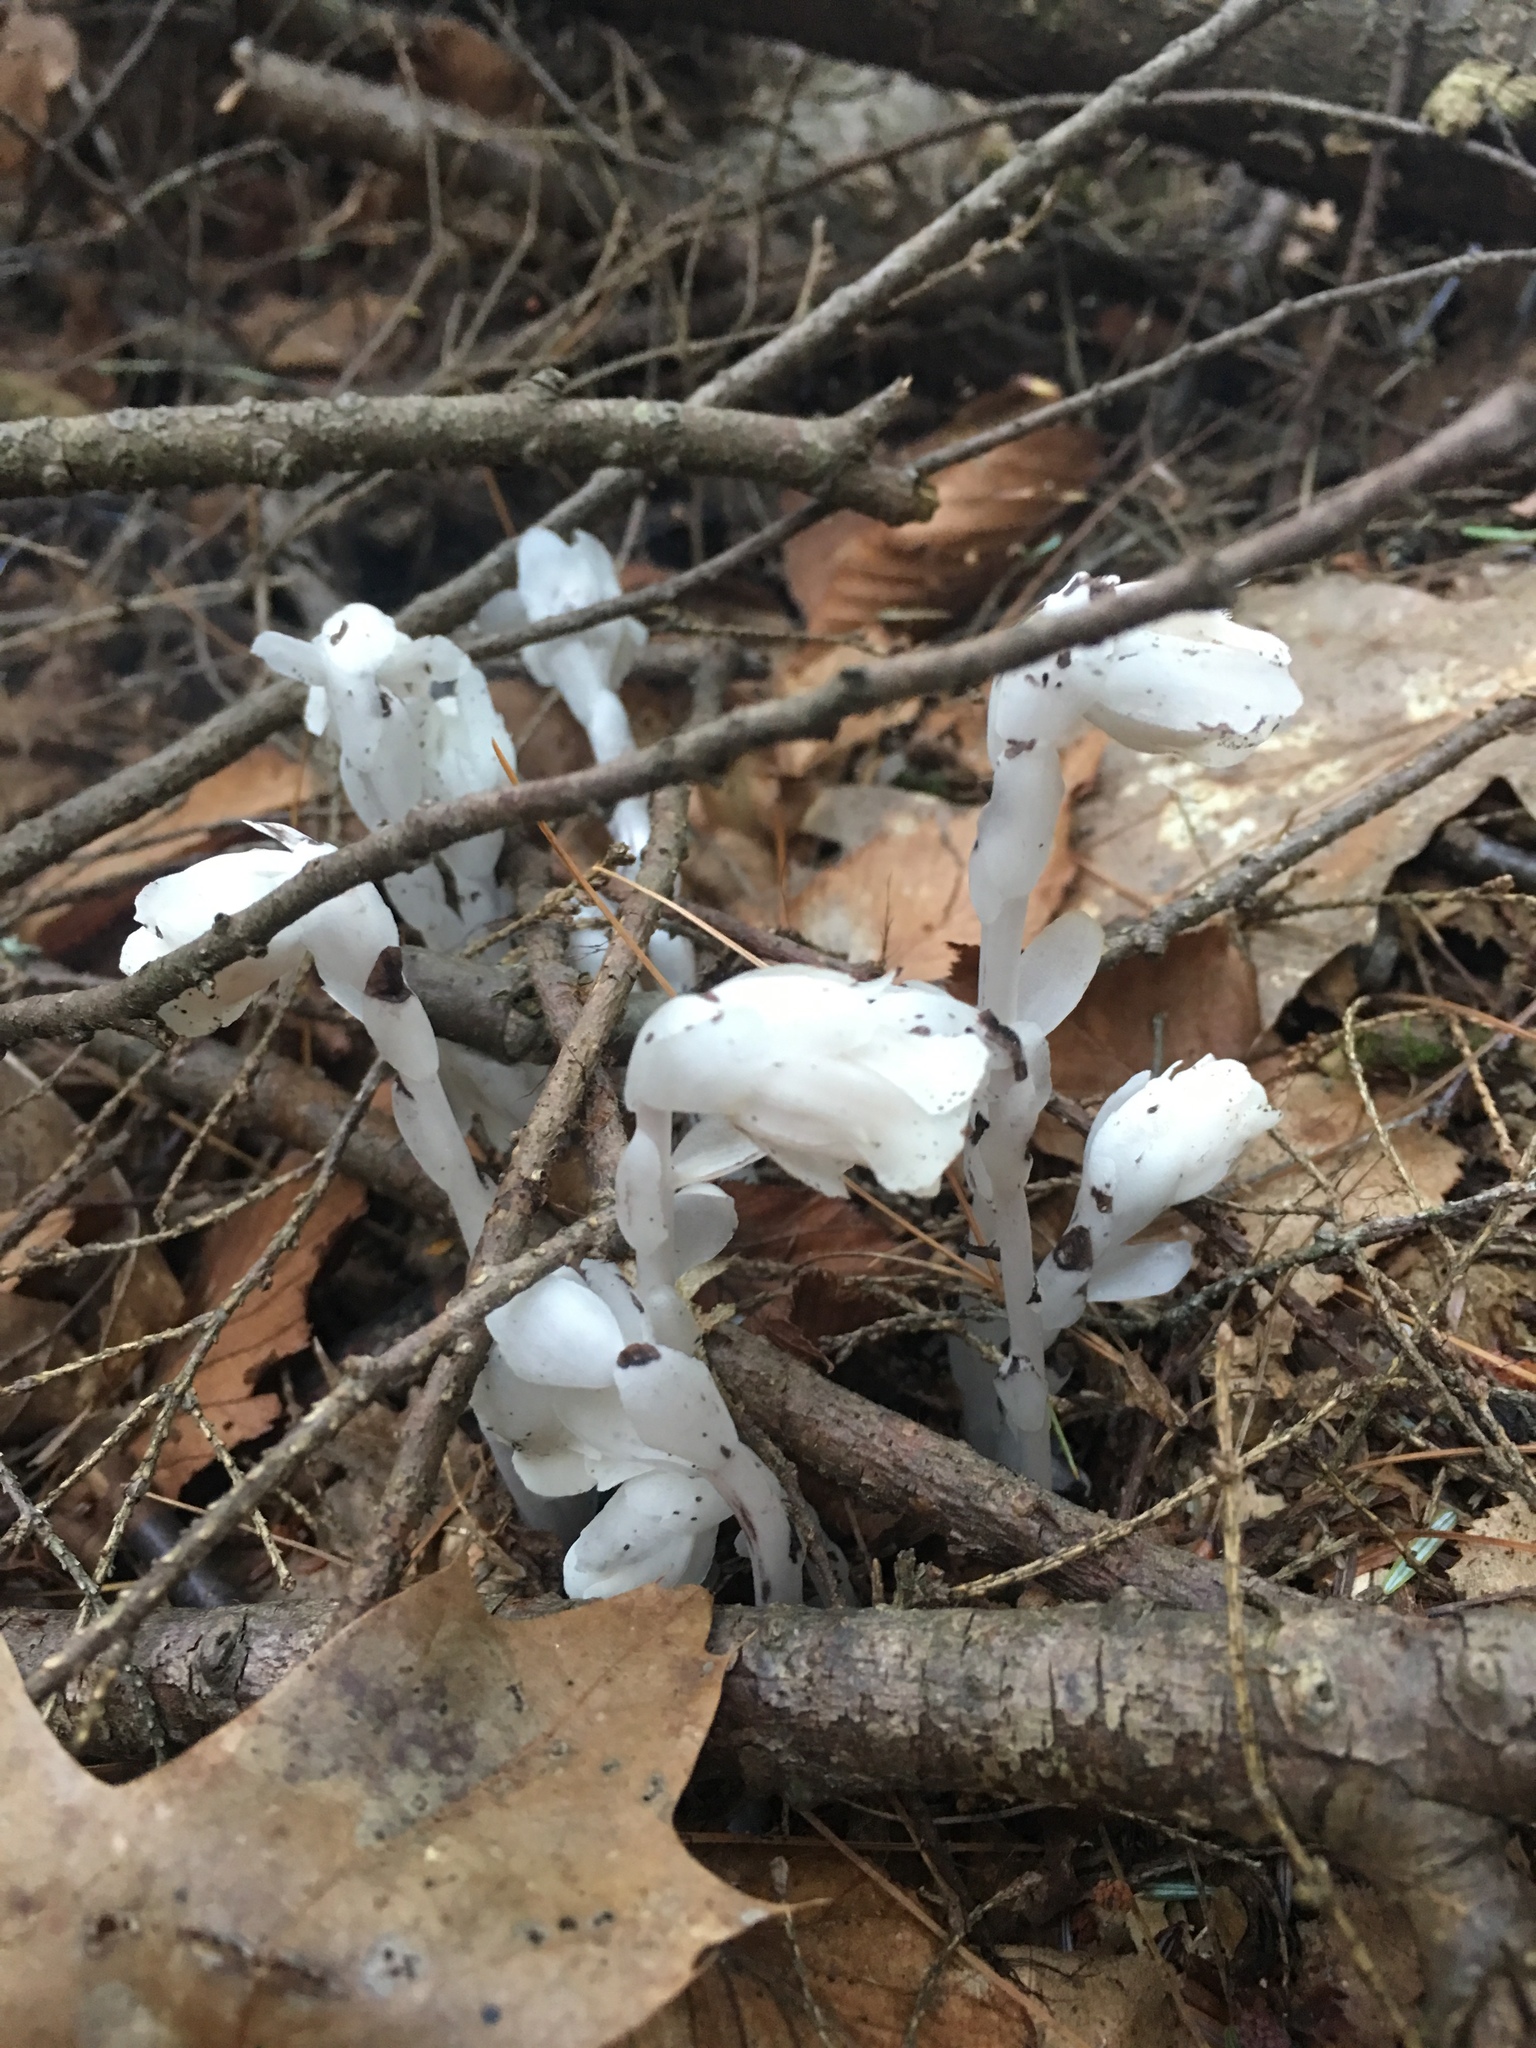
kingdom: Plantae
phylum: Tracheophyta
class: Magnoliopsida
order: Ericales
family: Ericaceae
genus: Monotropa
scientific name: Monotropa uniflora
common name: Convulsion root
